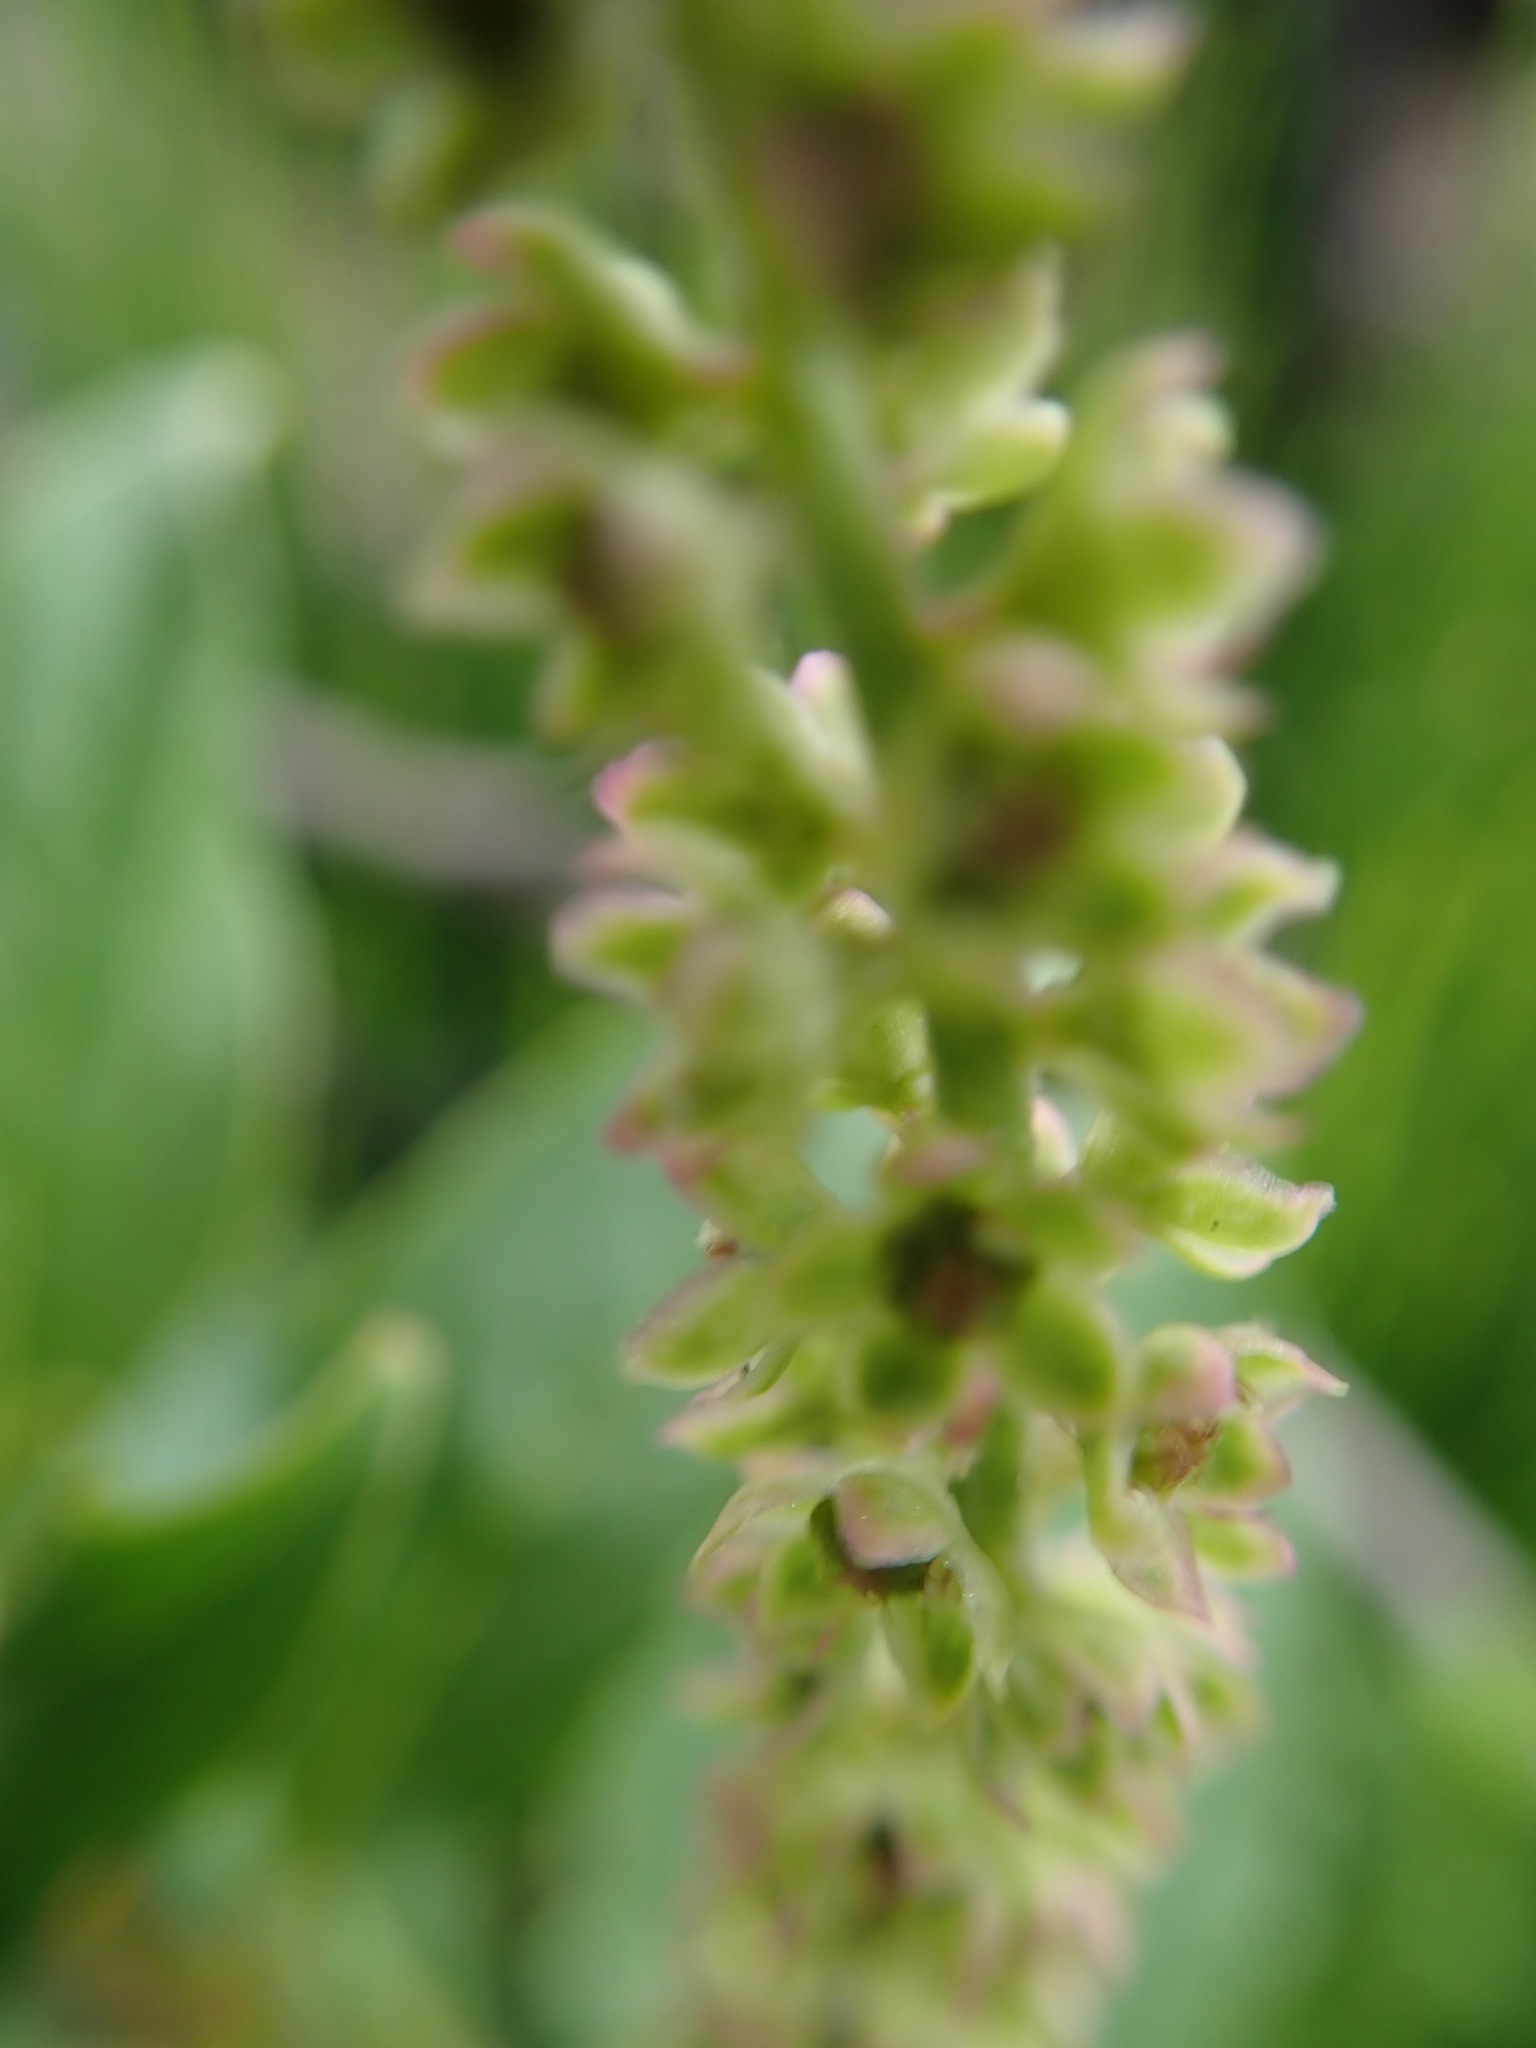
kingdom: Plantae
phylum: Tracheophyta
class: Magnoliopsida
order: Caryophyllales
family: Phytolaccaceae
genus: Phytolacca
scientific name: Phytolacca icosandra
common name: Button pokeweed
